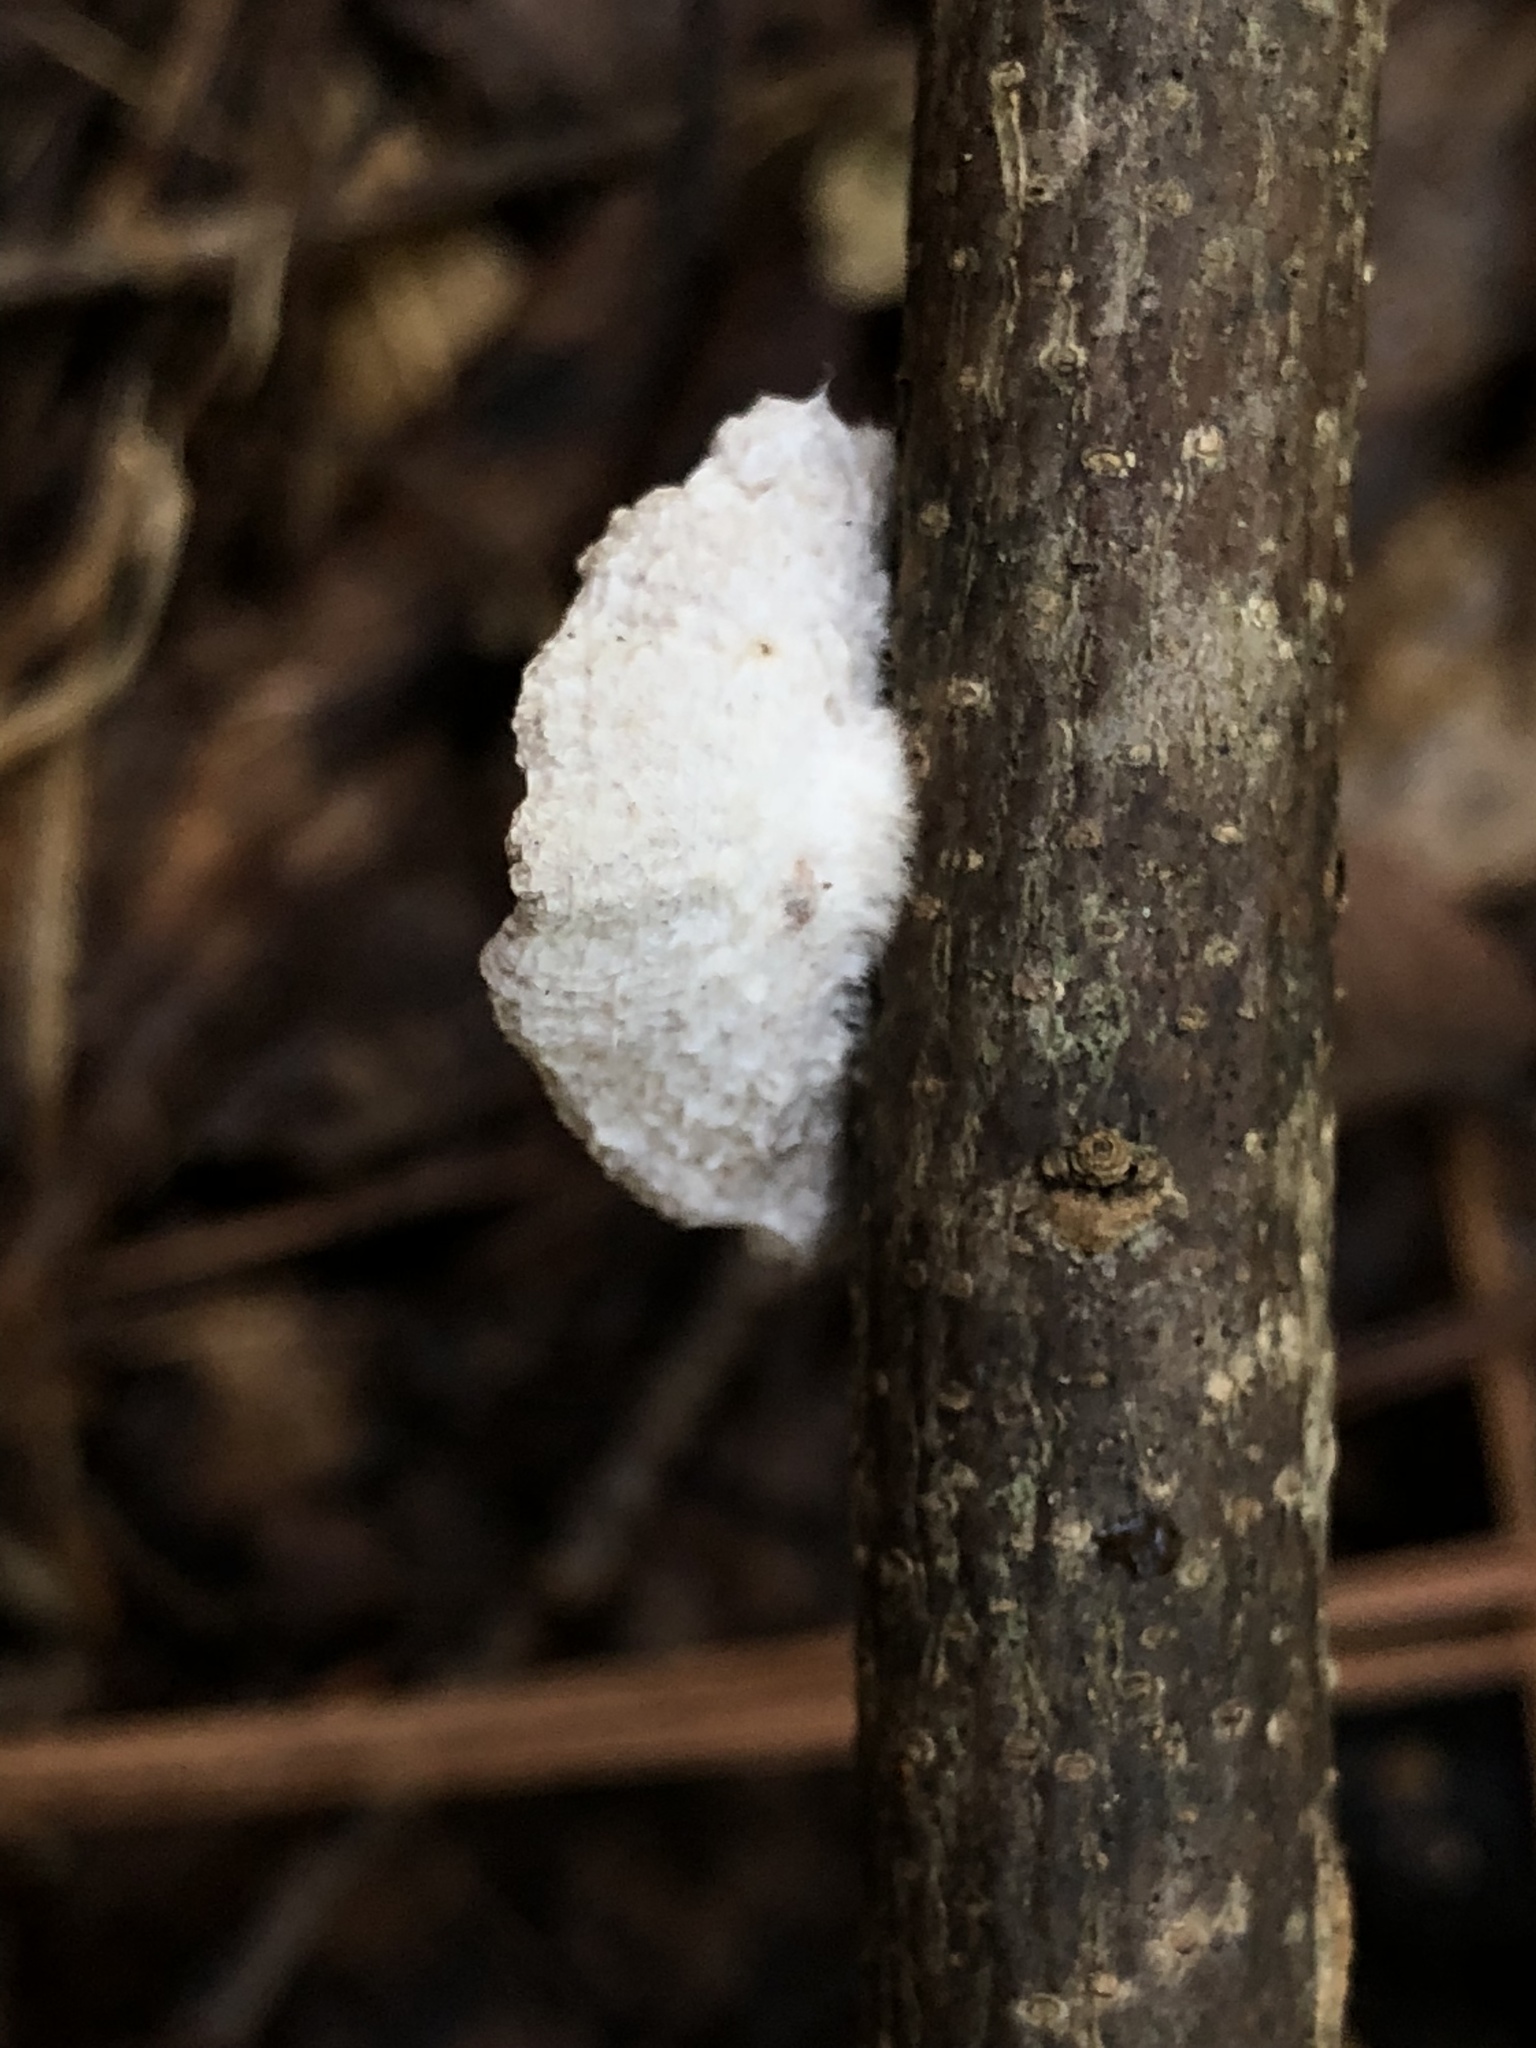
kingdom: Fungi
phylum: Basidiomycota
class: Agaricomycetes
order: Agaricales
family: Schizophyllaceae
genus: Schizophyllum
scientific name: Schizophyllum commune
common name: Common porecrust
